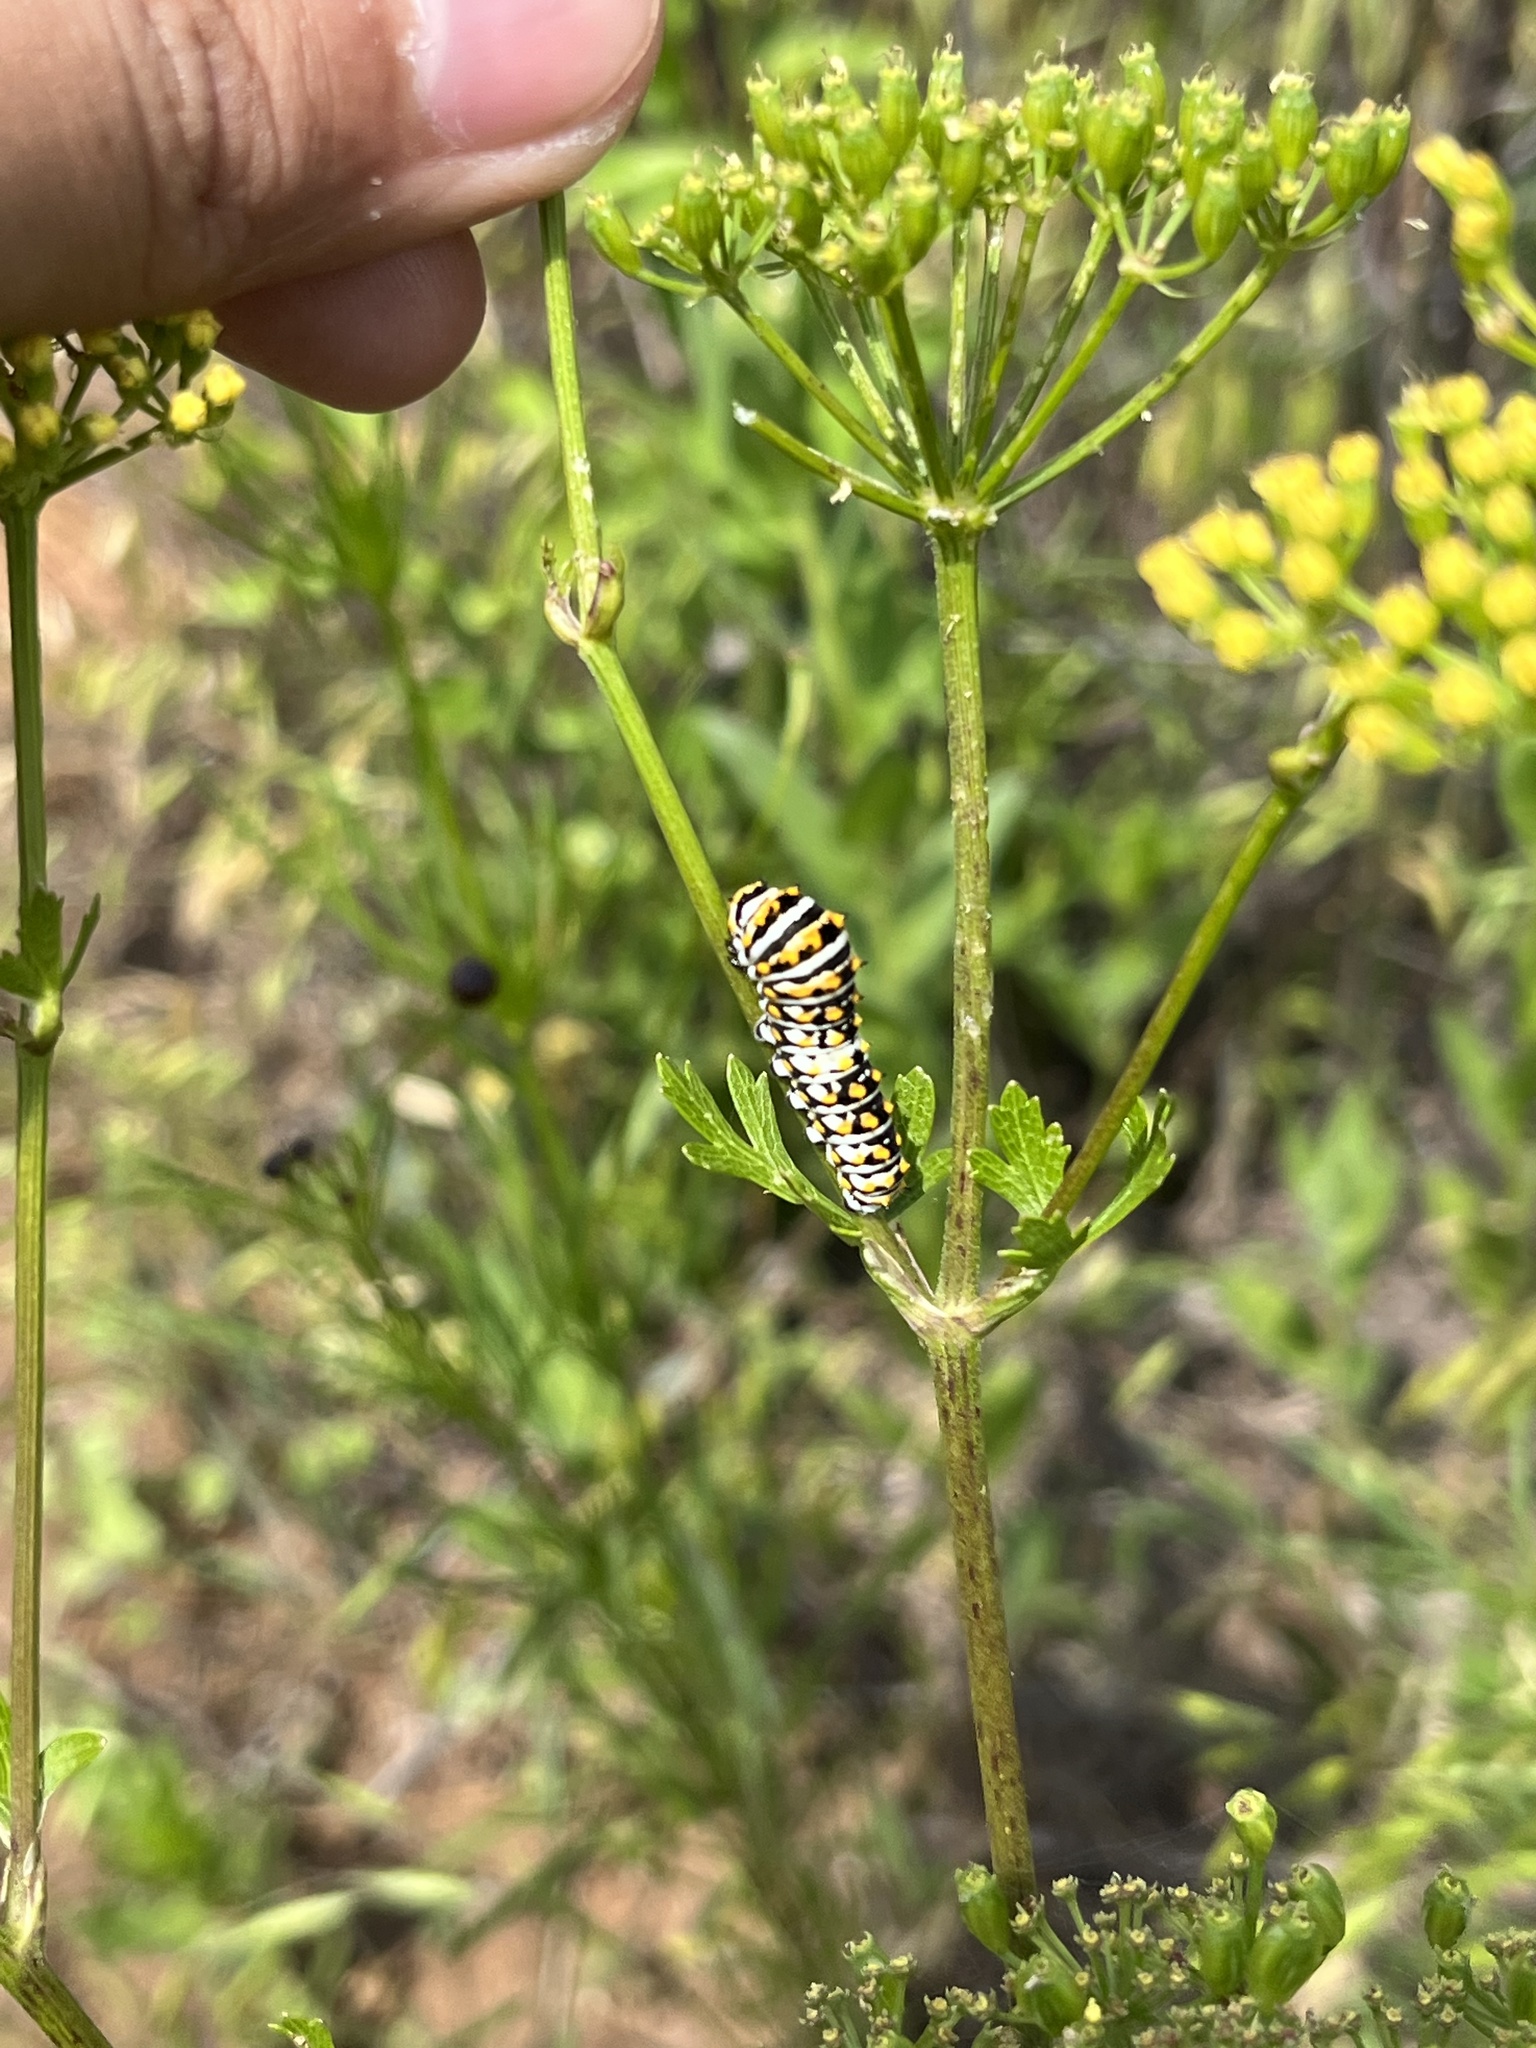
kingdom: Animalia
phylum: Arthropoda
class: Insecta
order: Lepidoptera
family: Papilionidae
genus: Papilio
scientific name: Papilio polyxenes
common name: Black swallowtail
